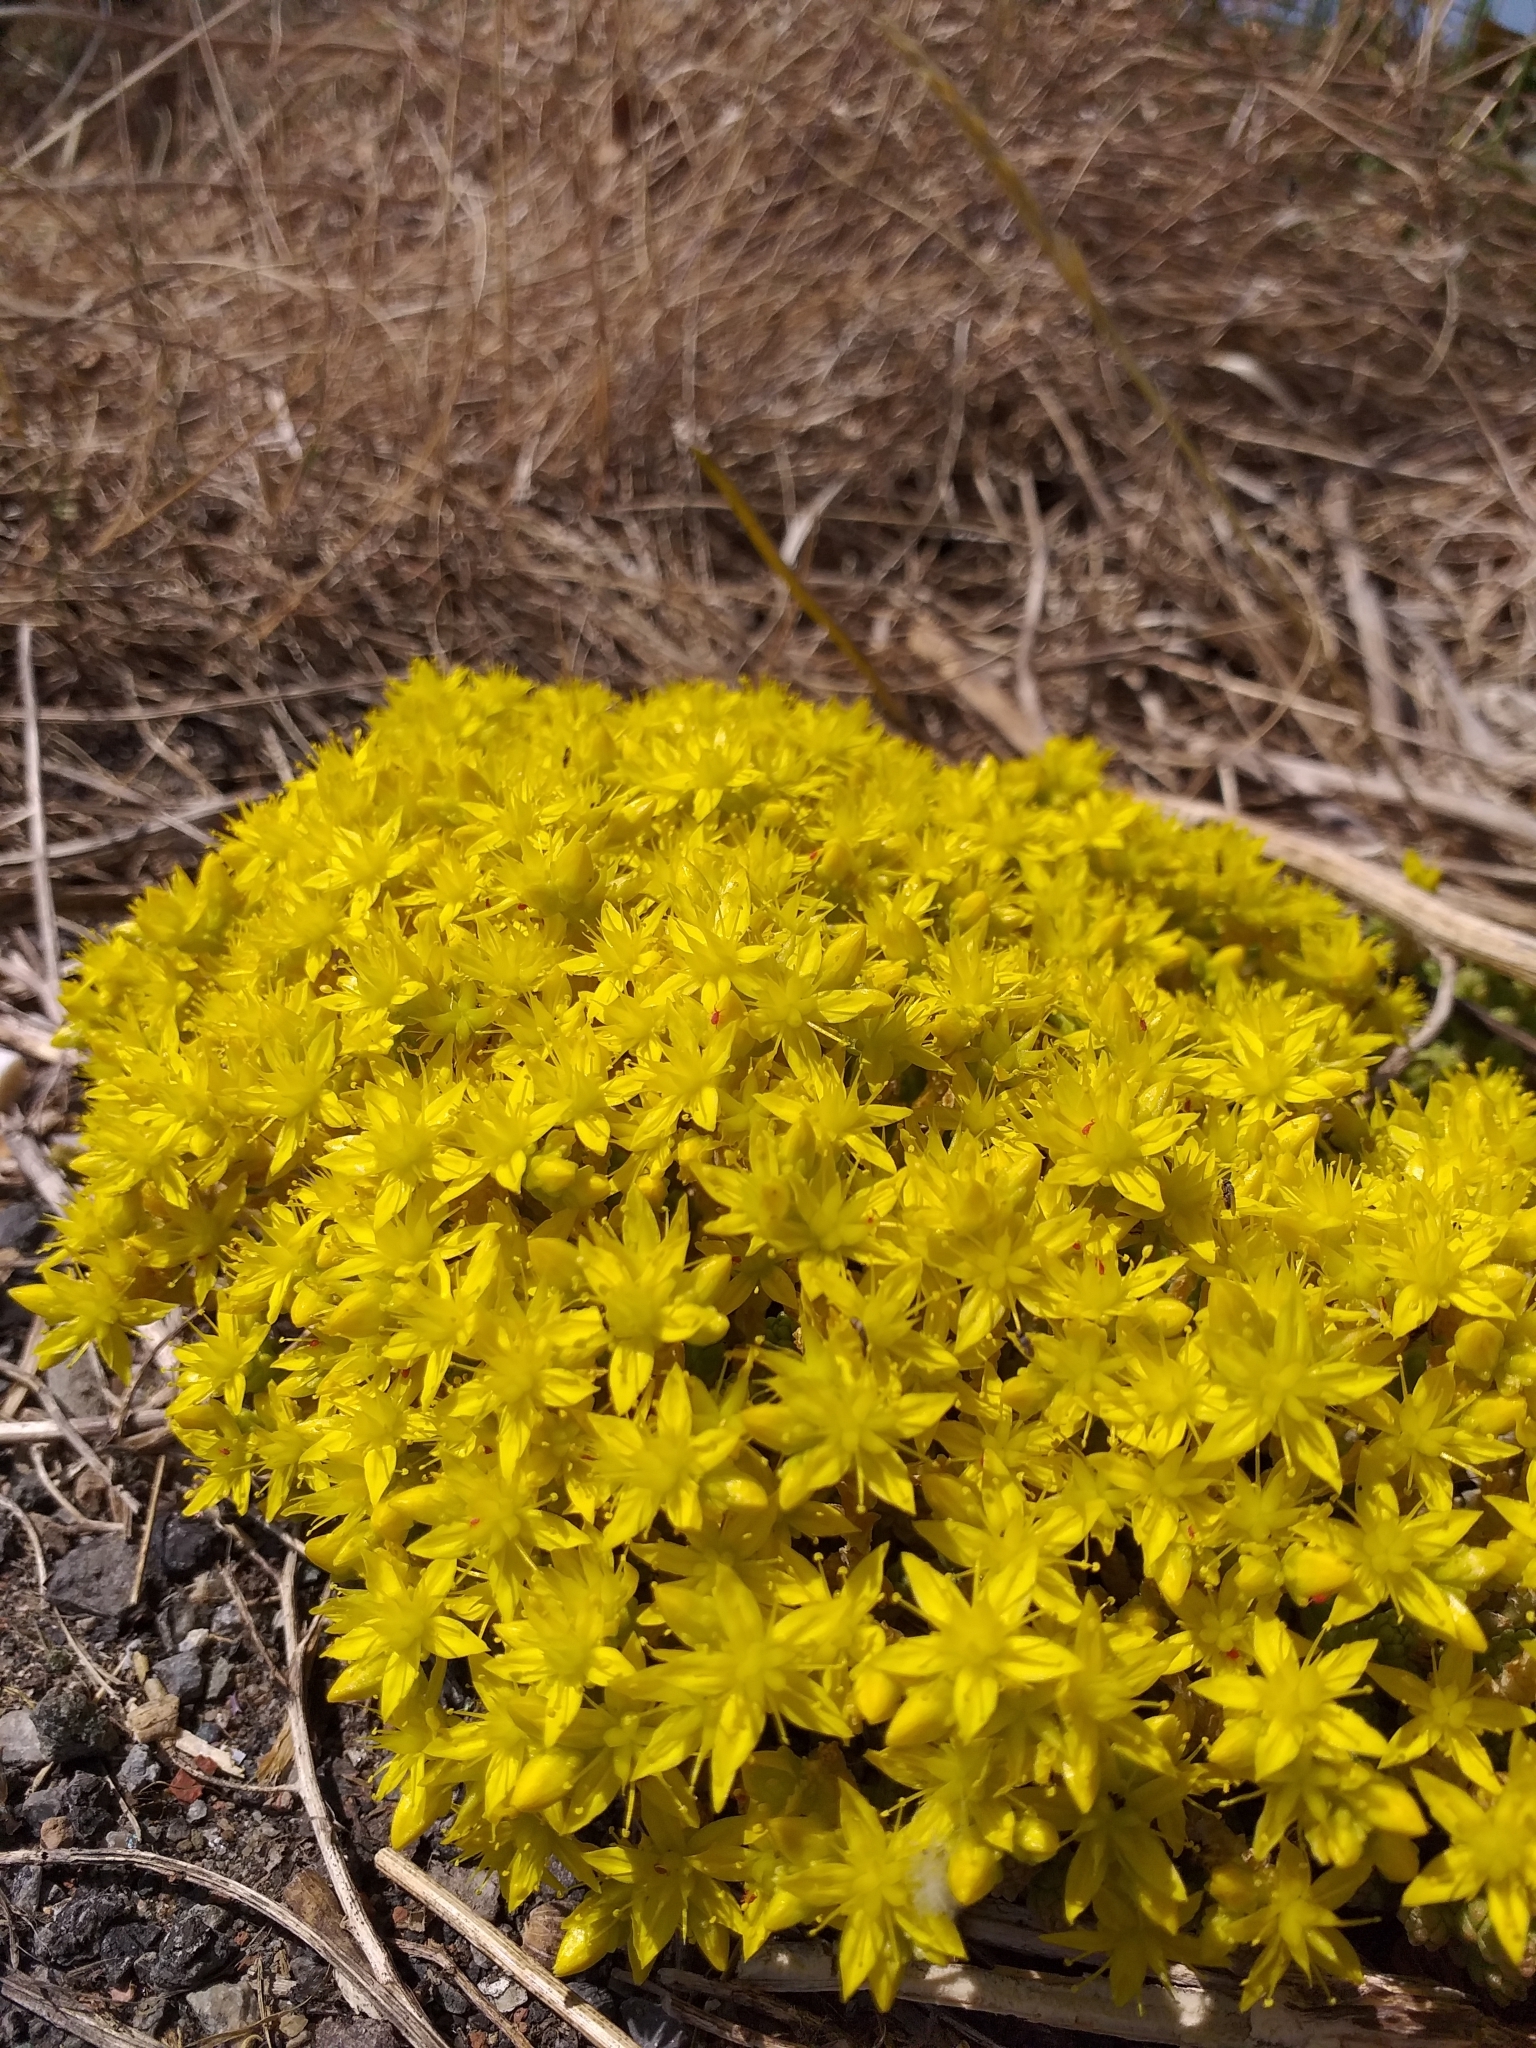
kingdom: Plantae
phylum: Tracheophyta
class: Magnoliopsida
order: Saxifragales
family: Crassulaceae
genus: Sedum
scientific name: Sedum acre
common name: Biting stonecrop
